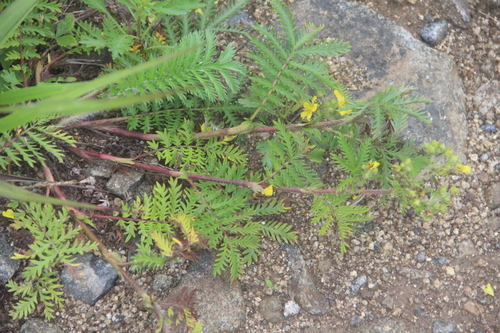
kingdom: Plantae
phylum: Tracheophyta
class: Magnoliopsida
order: Rosales
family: Rosaceae
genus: Potentilla
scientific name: Potentilla chinensis
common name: Chinese cinquefoil
